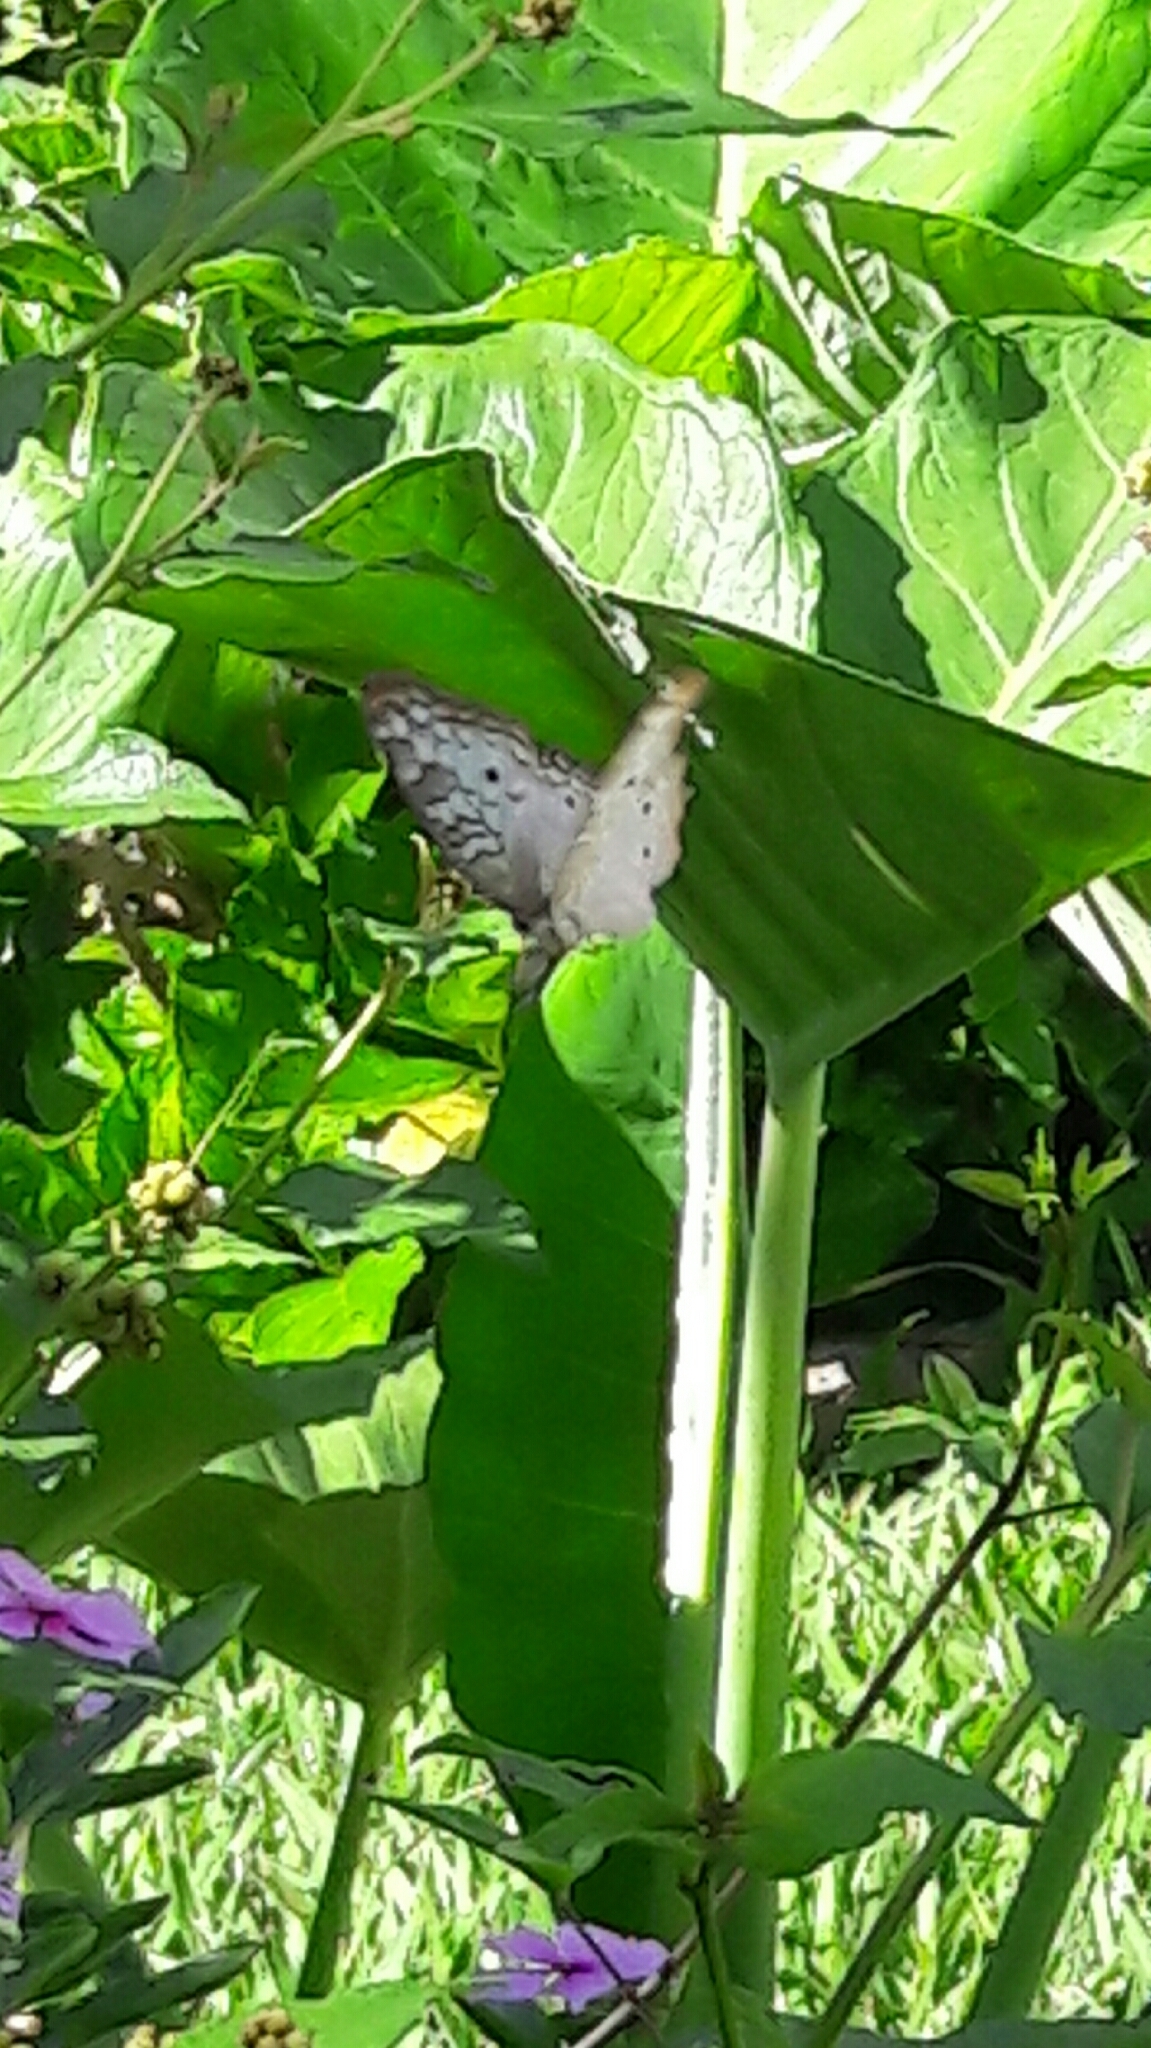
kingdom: Animalia
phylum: Arthropoda
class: Insecta
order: Lepidoptera
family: Nymphalidae
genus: Anartia
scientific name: Anartia jatrophae
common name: White peacock
